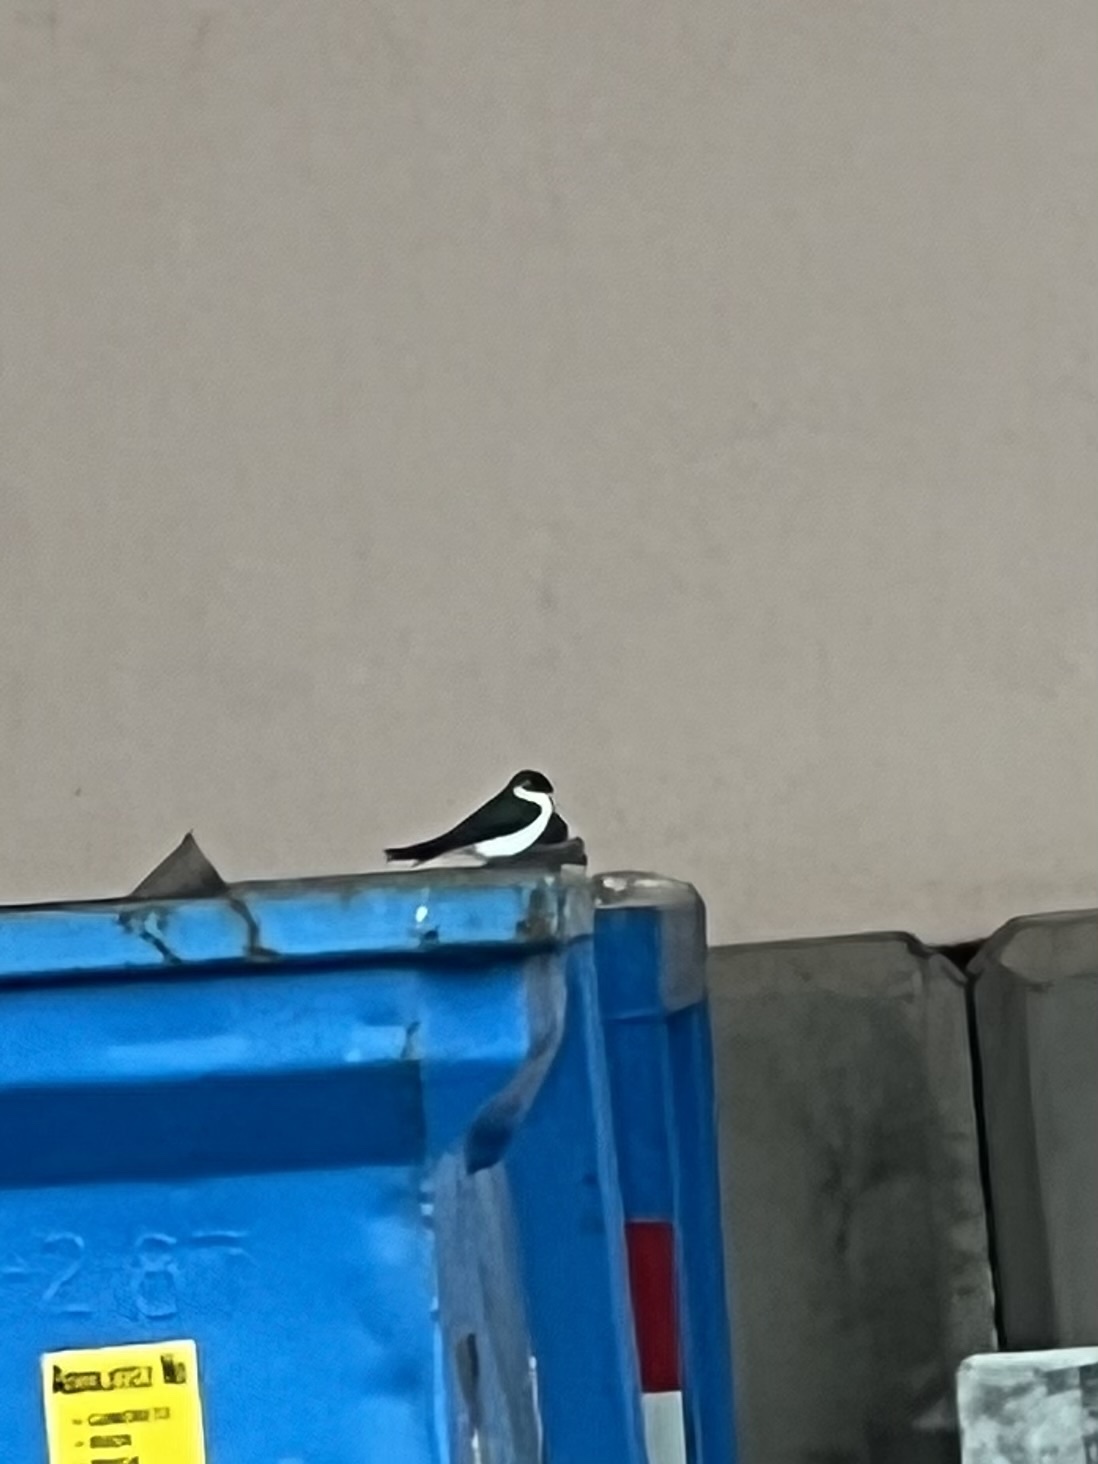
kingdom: Animalia
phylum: Chordata
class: Aves
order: Passeriformes
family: Hirundinidae
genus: Tachycineta
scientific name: Tachycineta thalassina
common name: Violet-green swallow
